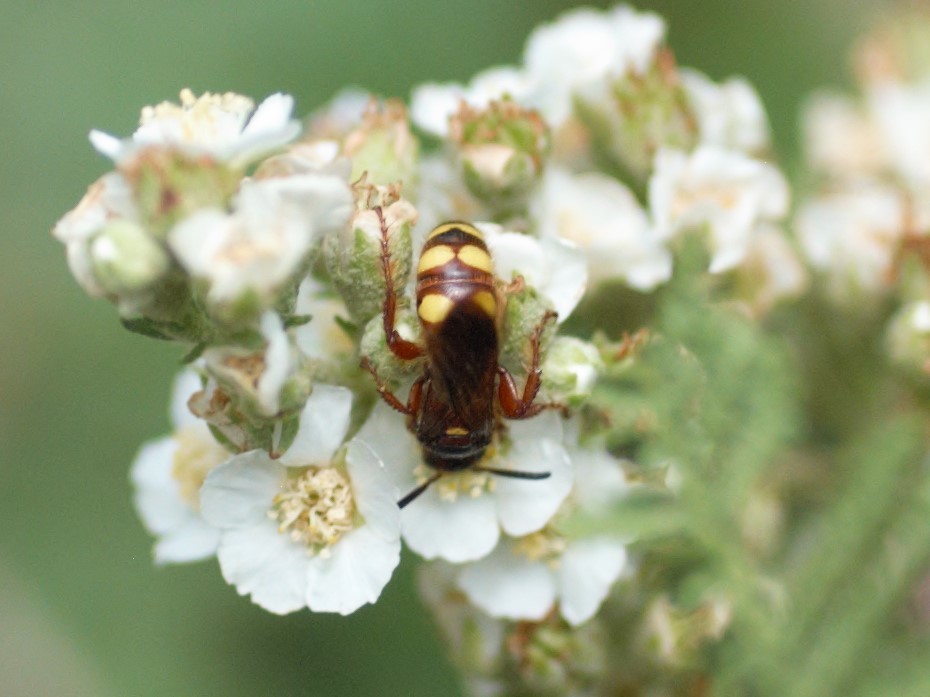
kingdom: Animalia
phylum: Arthropoda
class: Insecta
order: Hymenoptera
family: Scoliidae
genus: Scolia
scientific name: Scolia nobilitata
